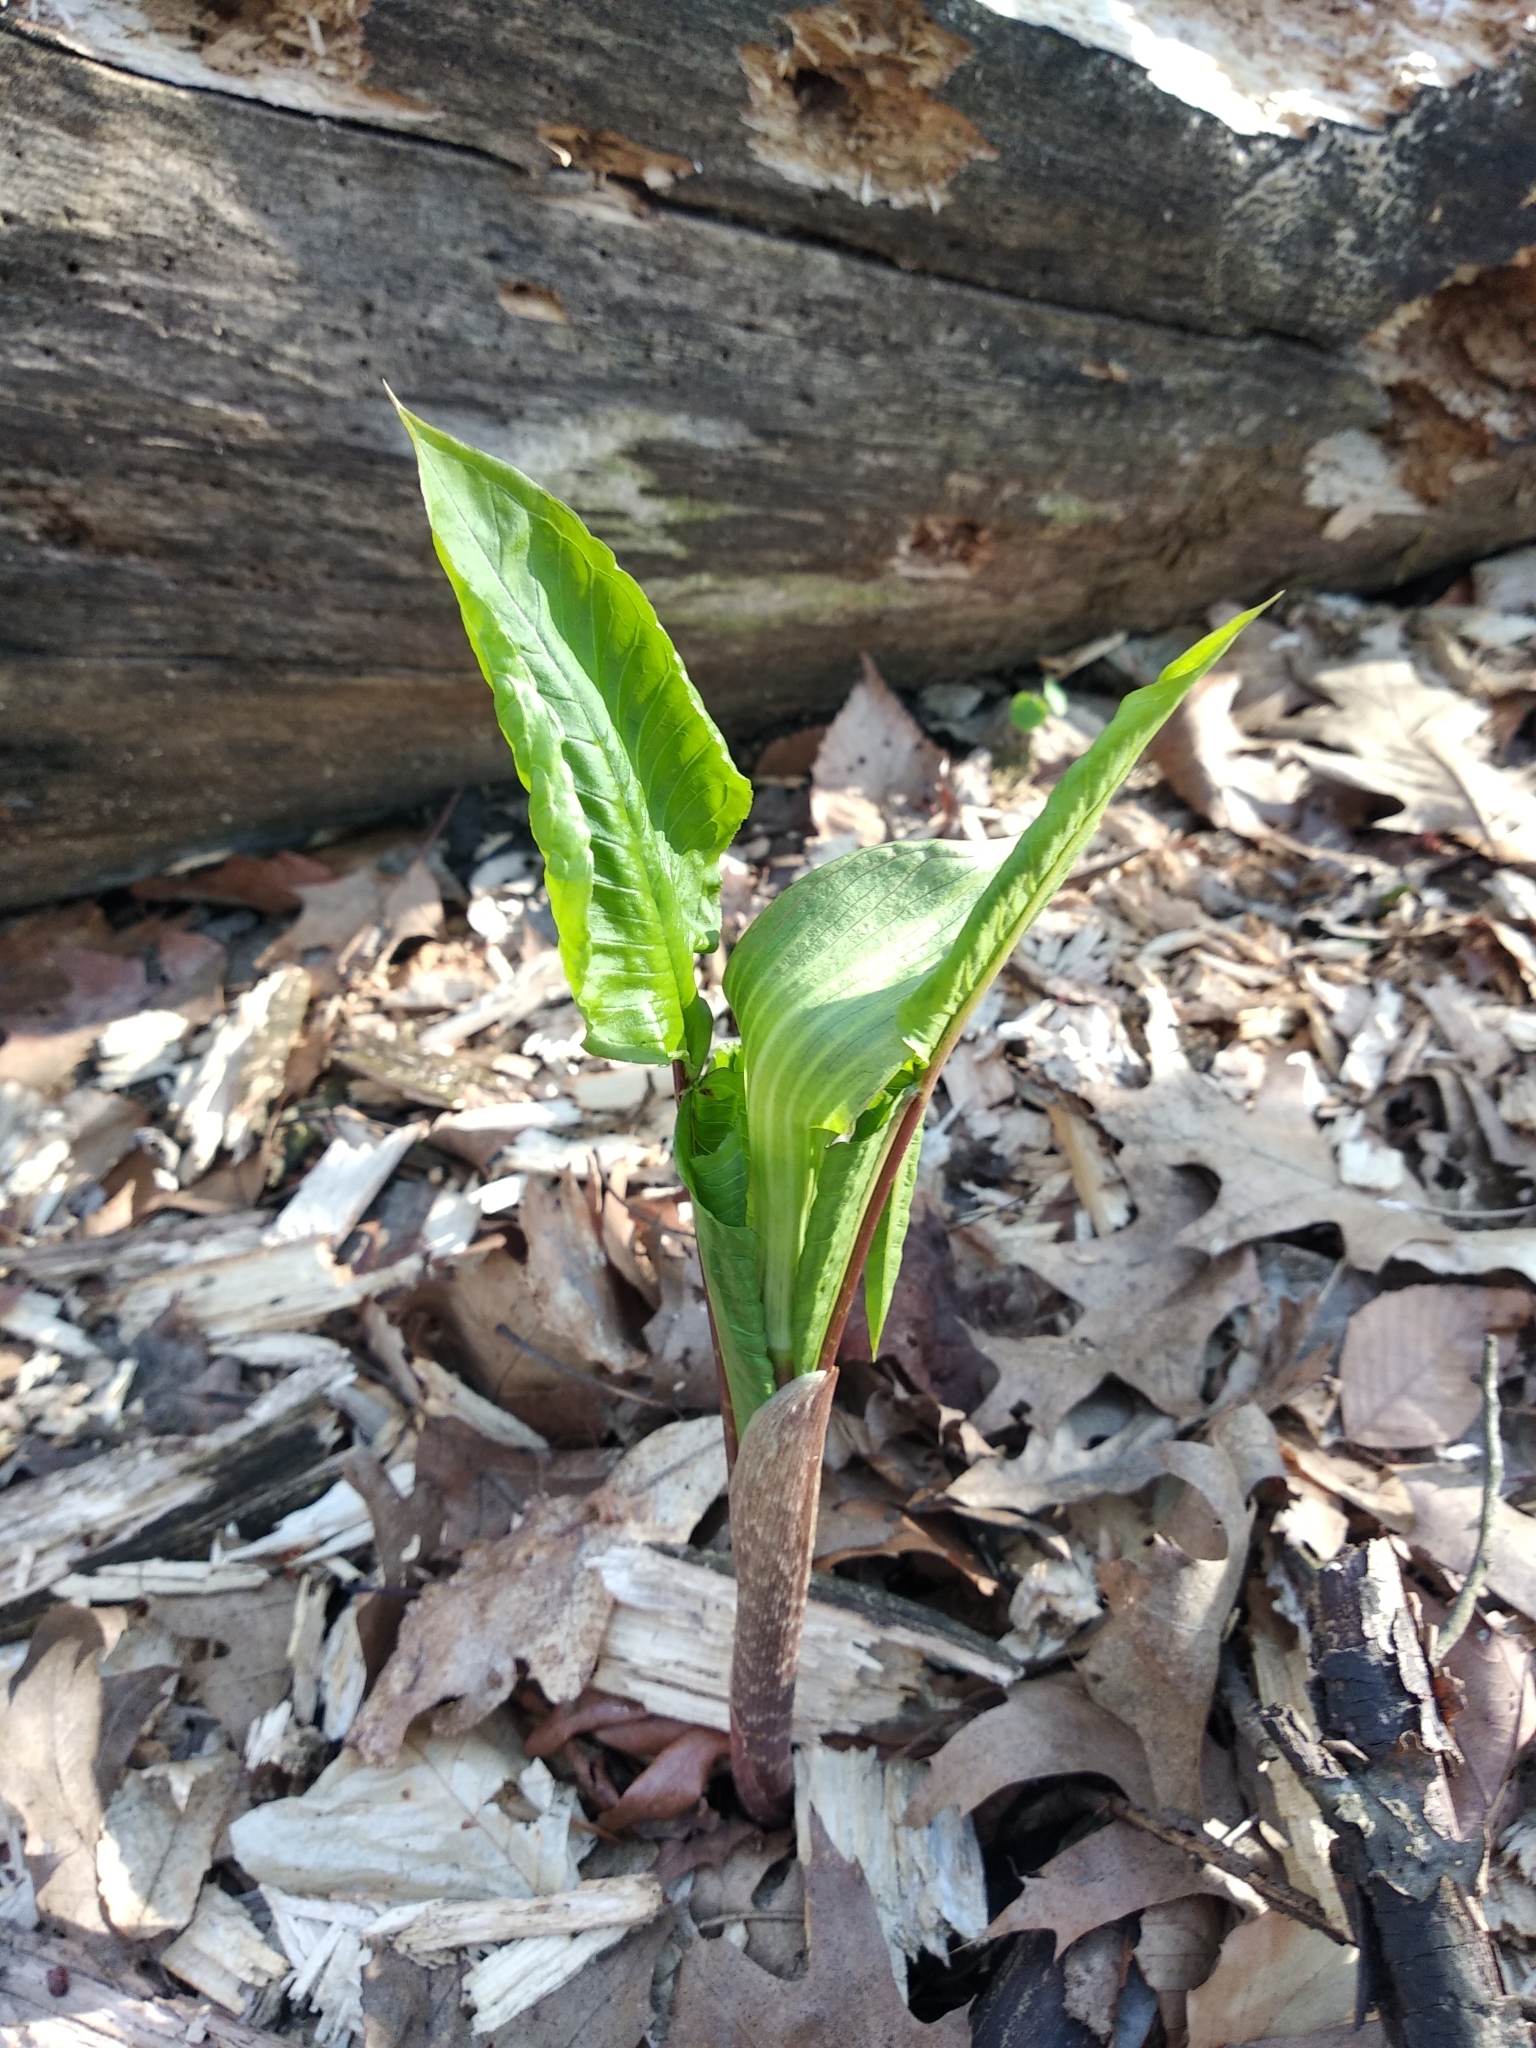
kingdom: Plantae
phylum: Tracheophyta
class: Liliopsida
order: Alismatales
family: Araceae
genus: Arisaema
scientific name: Arisaema triphyllum
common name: Jack-in-the-pulpit
